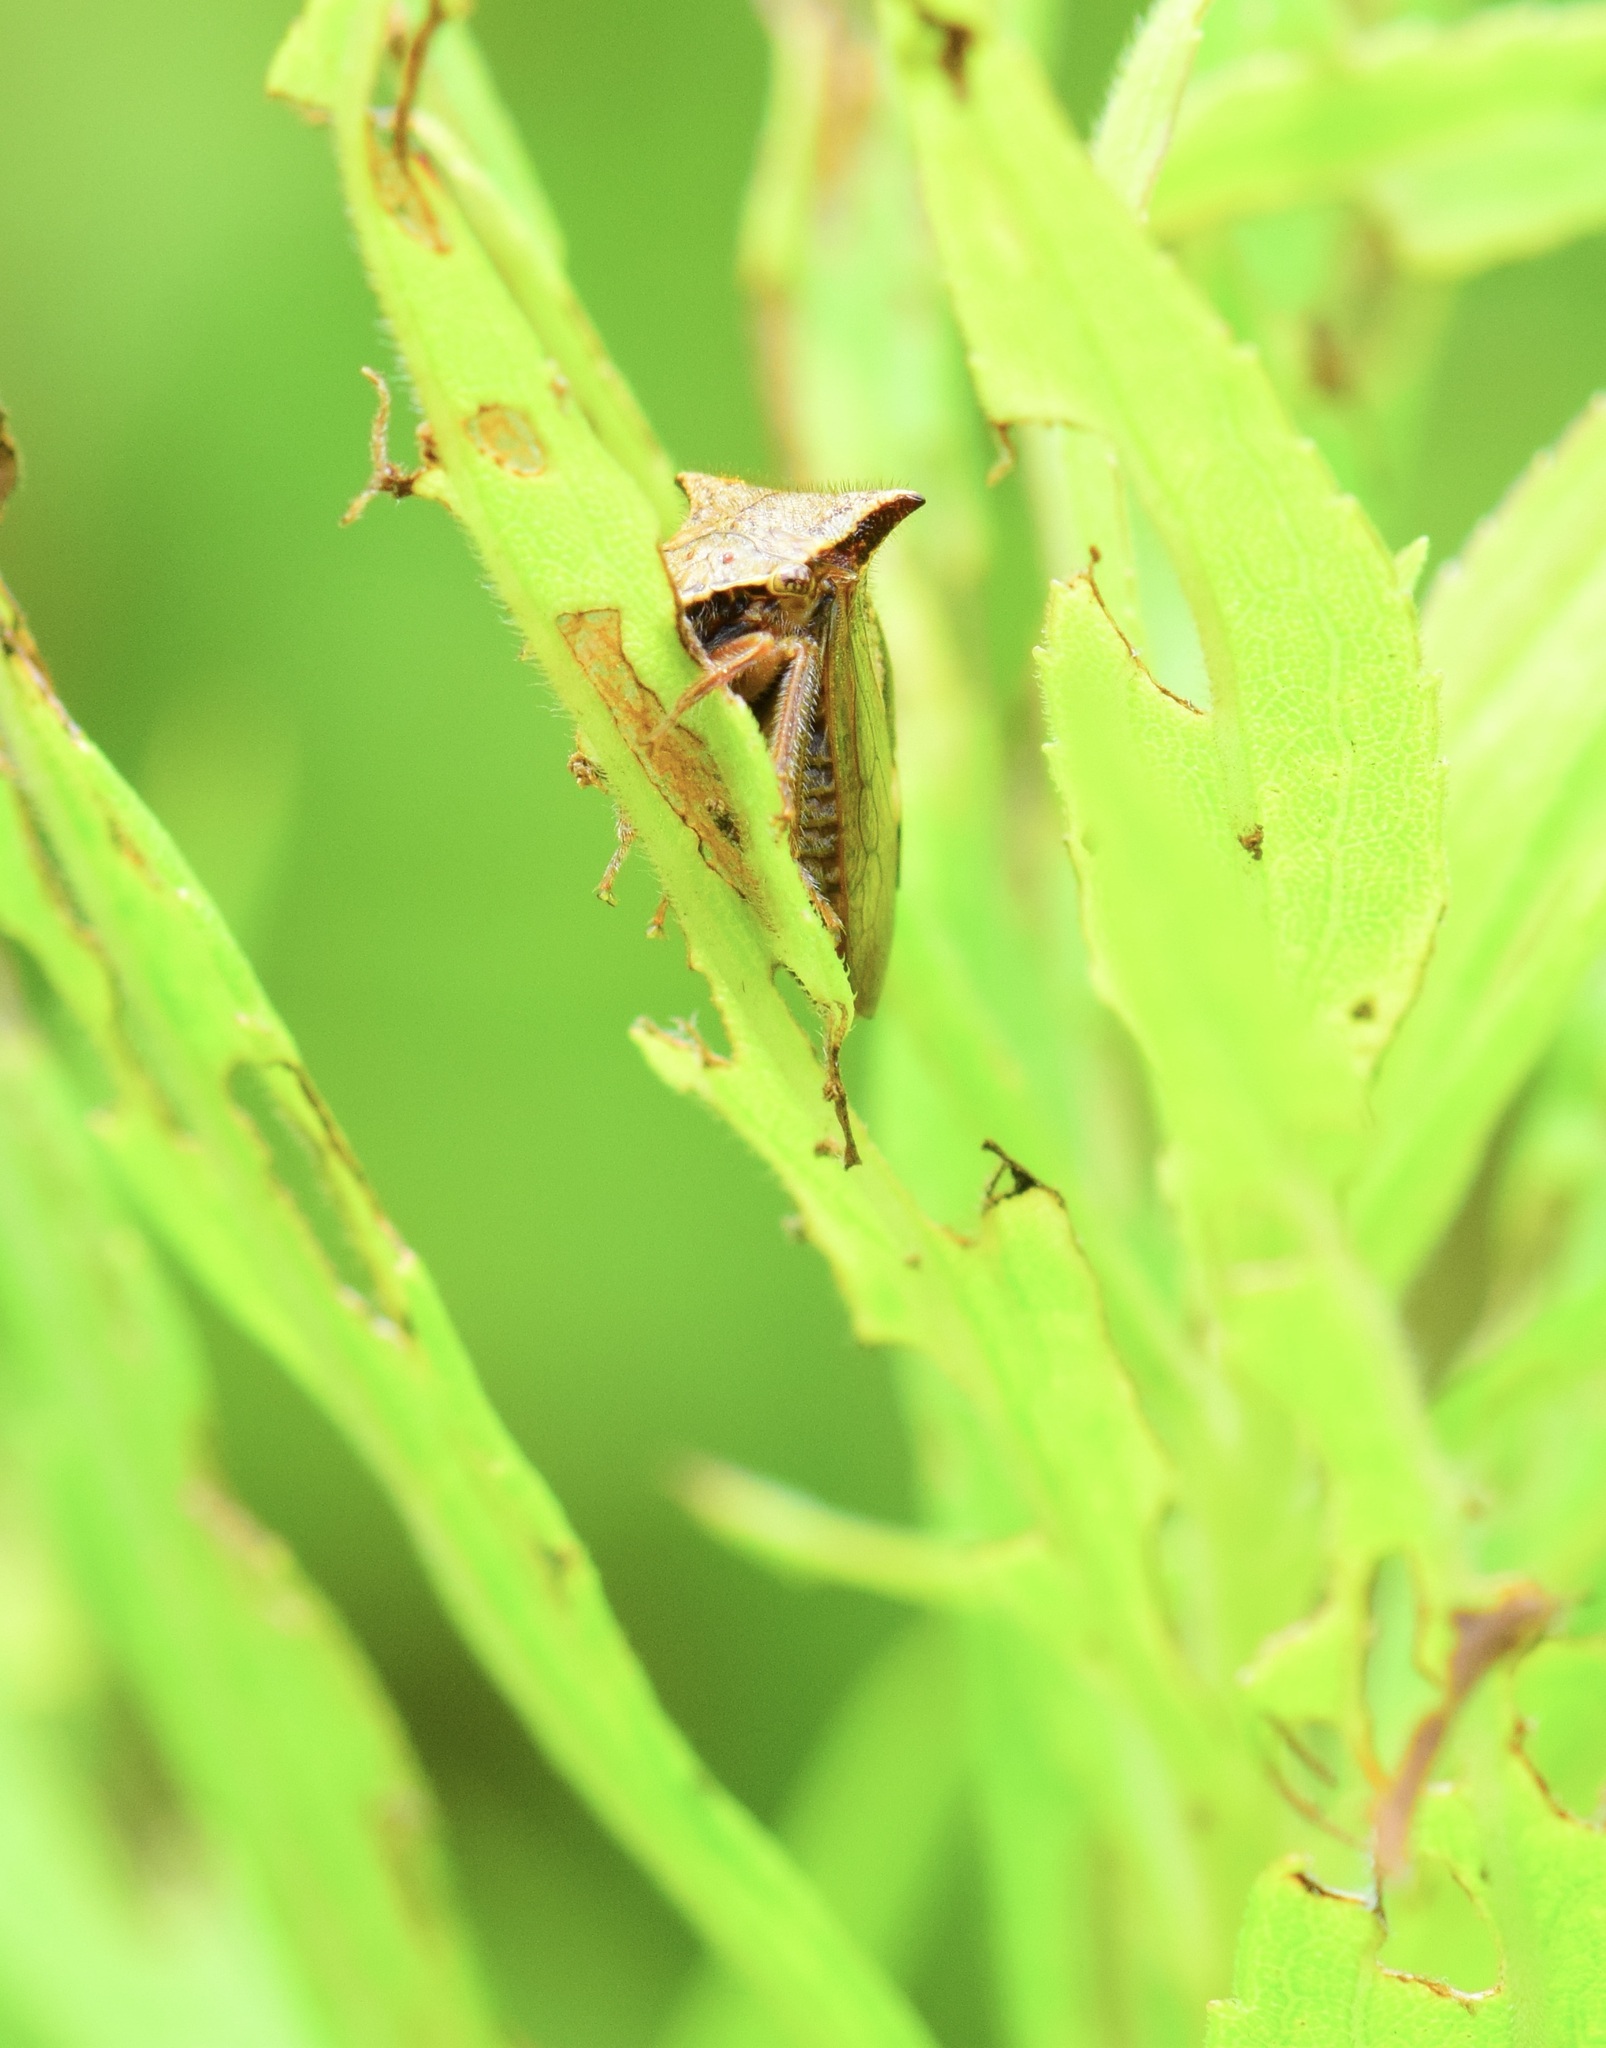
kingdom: Animalia
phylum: Arthropoda
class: Insecta
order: Hemiptera
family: Membracidae
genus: Stictocephala
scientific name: Stictocephala diceros
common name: Two-horned treehopper
